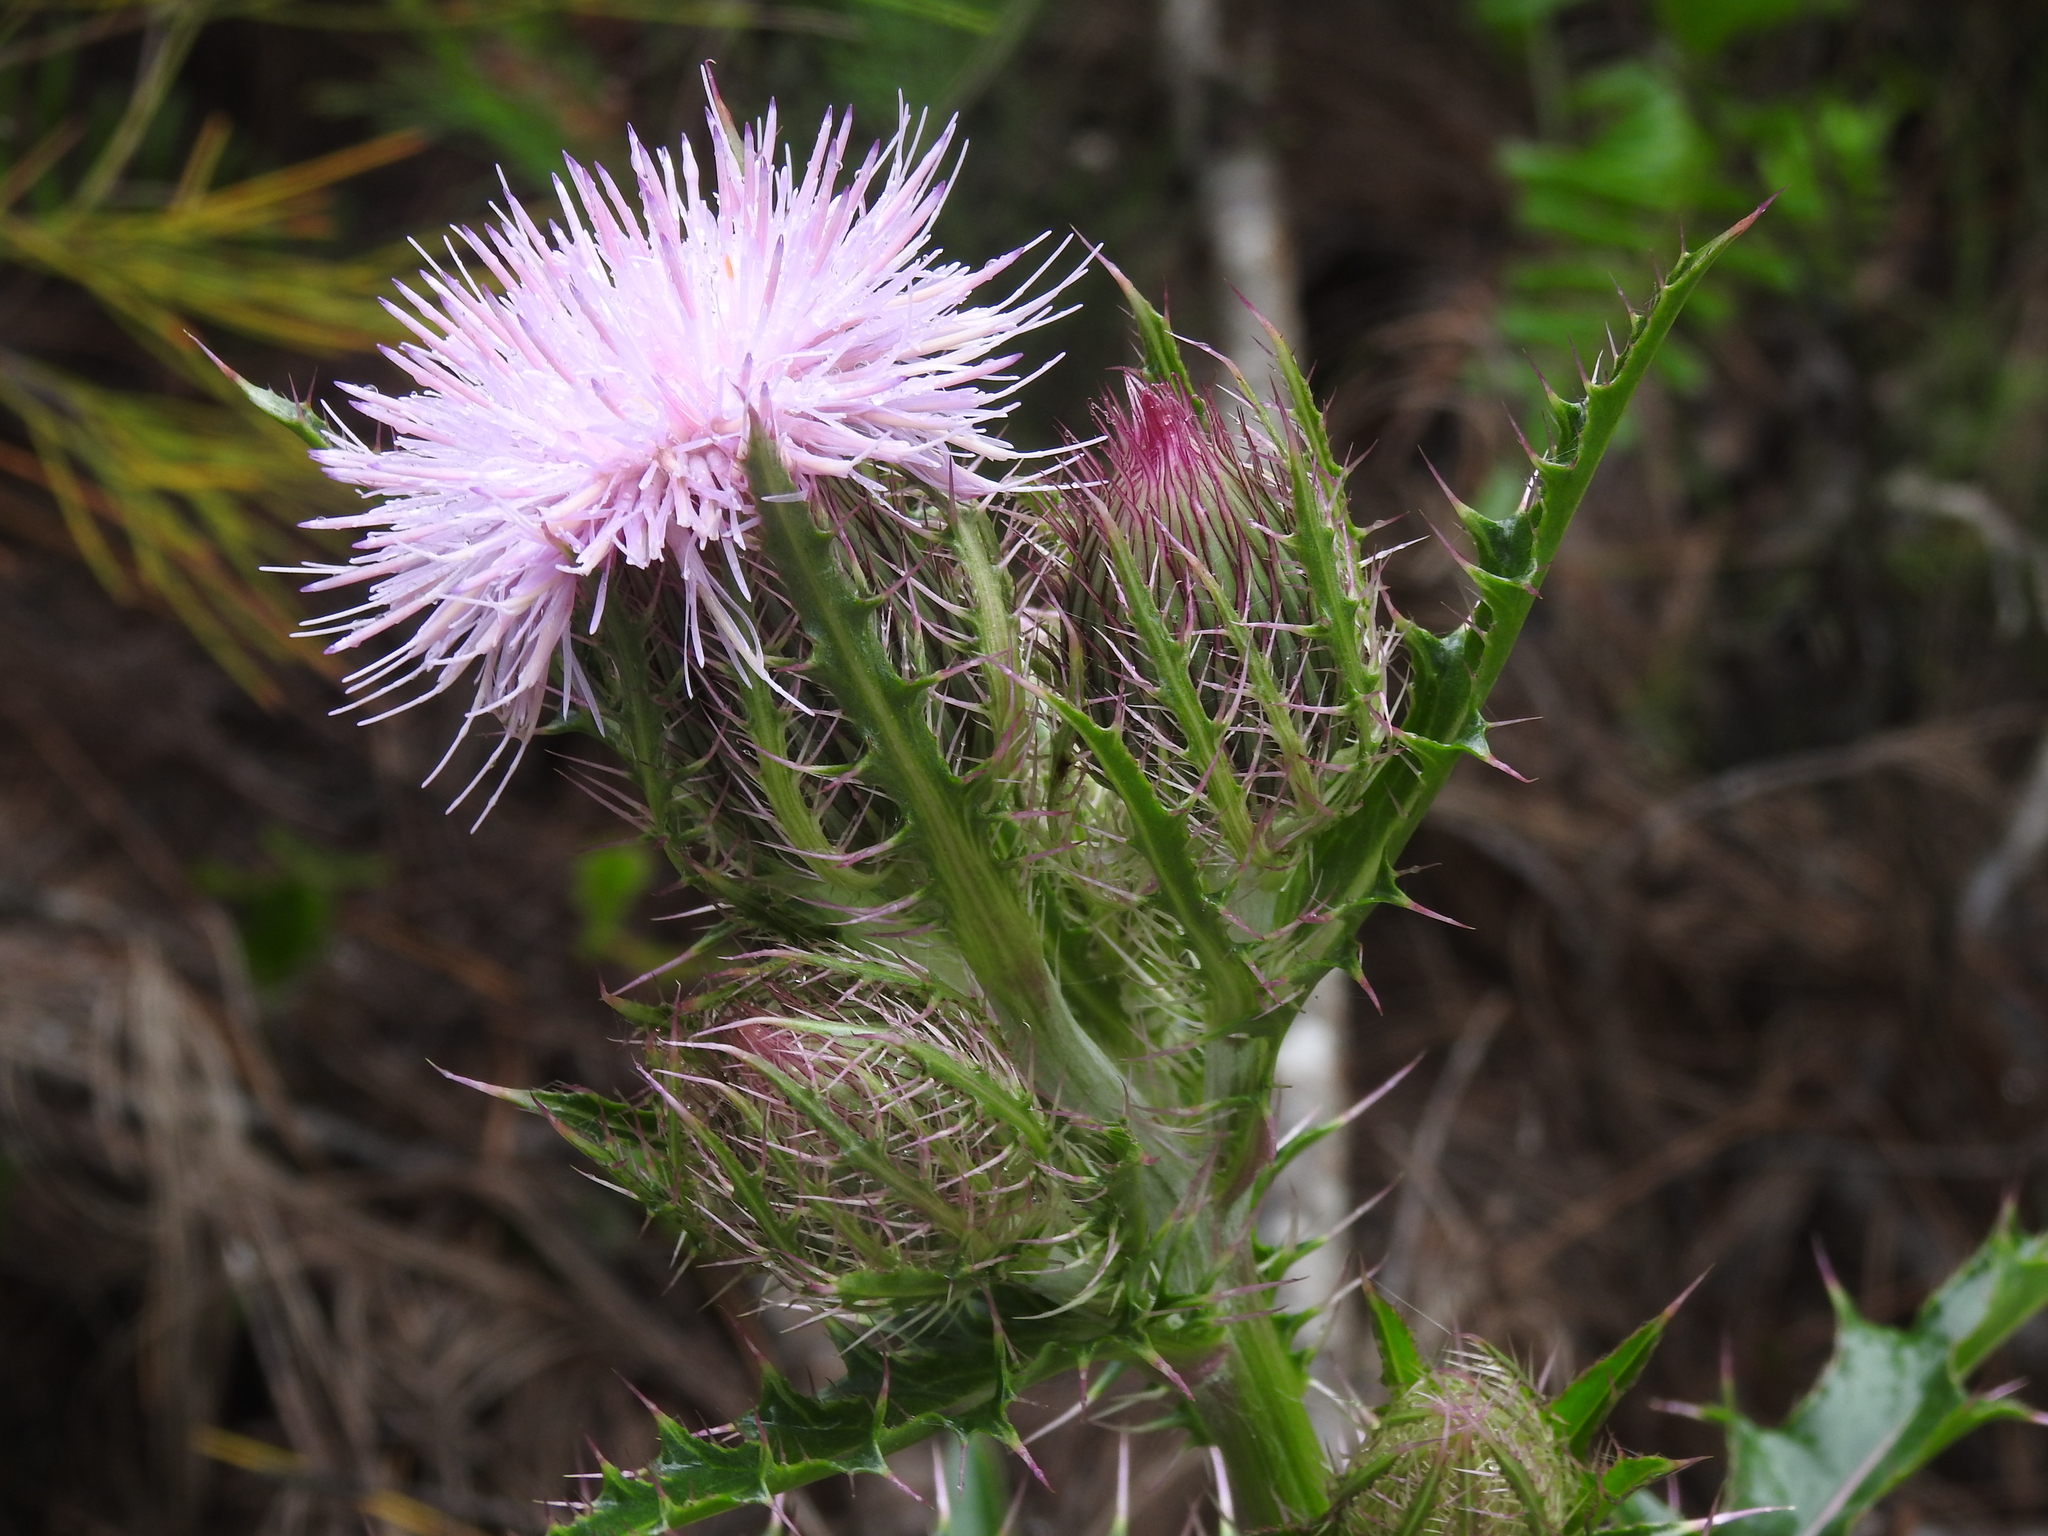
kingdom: Plantae
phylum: Tracheophyta
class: Magnoliopsida
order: Asterales
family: Asteraceae
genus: Cirsium
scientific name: Cirsium horridulum
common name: Bristly thistle
